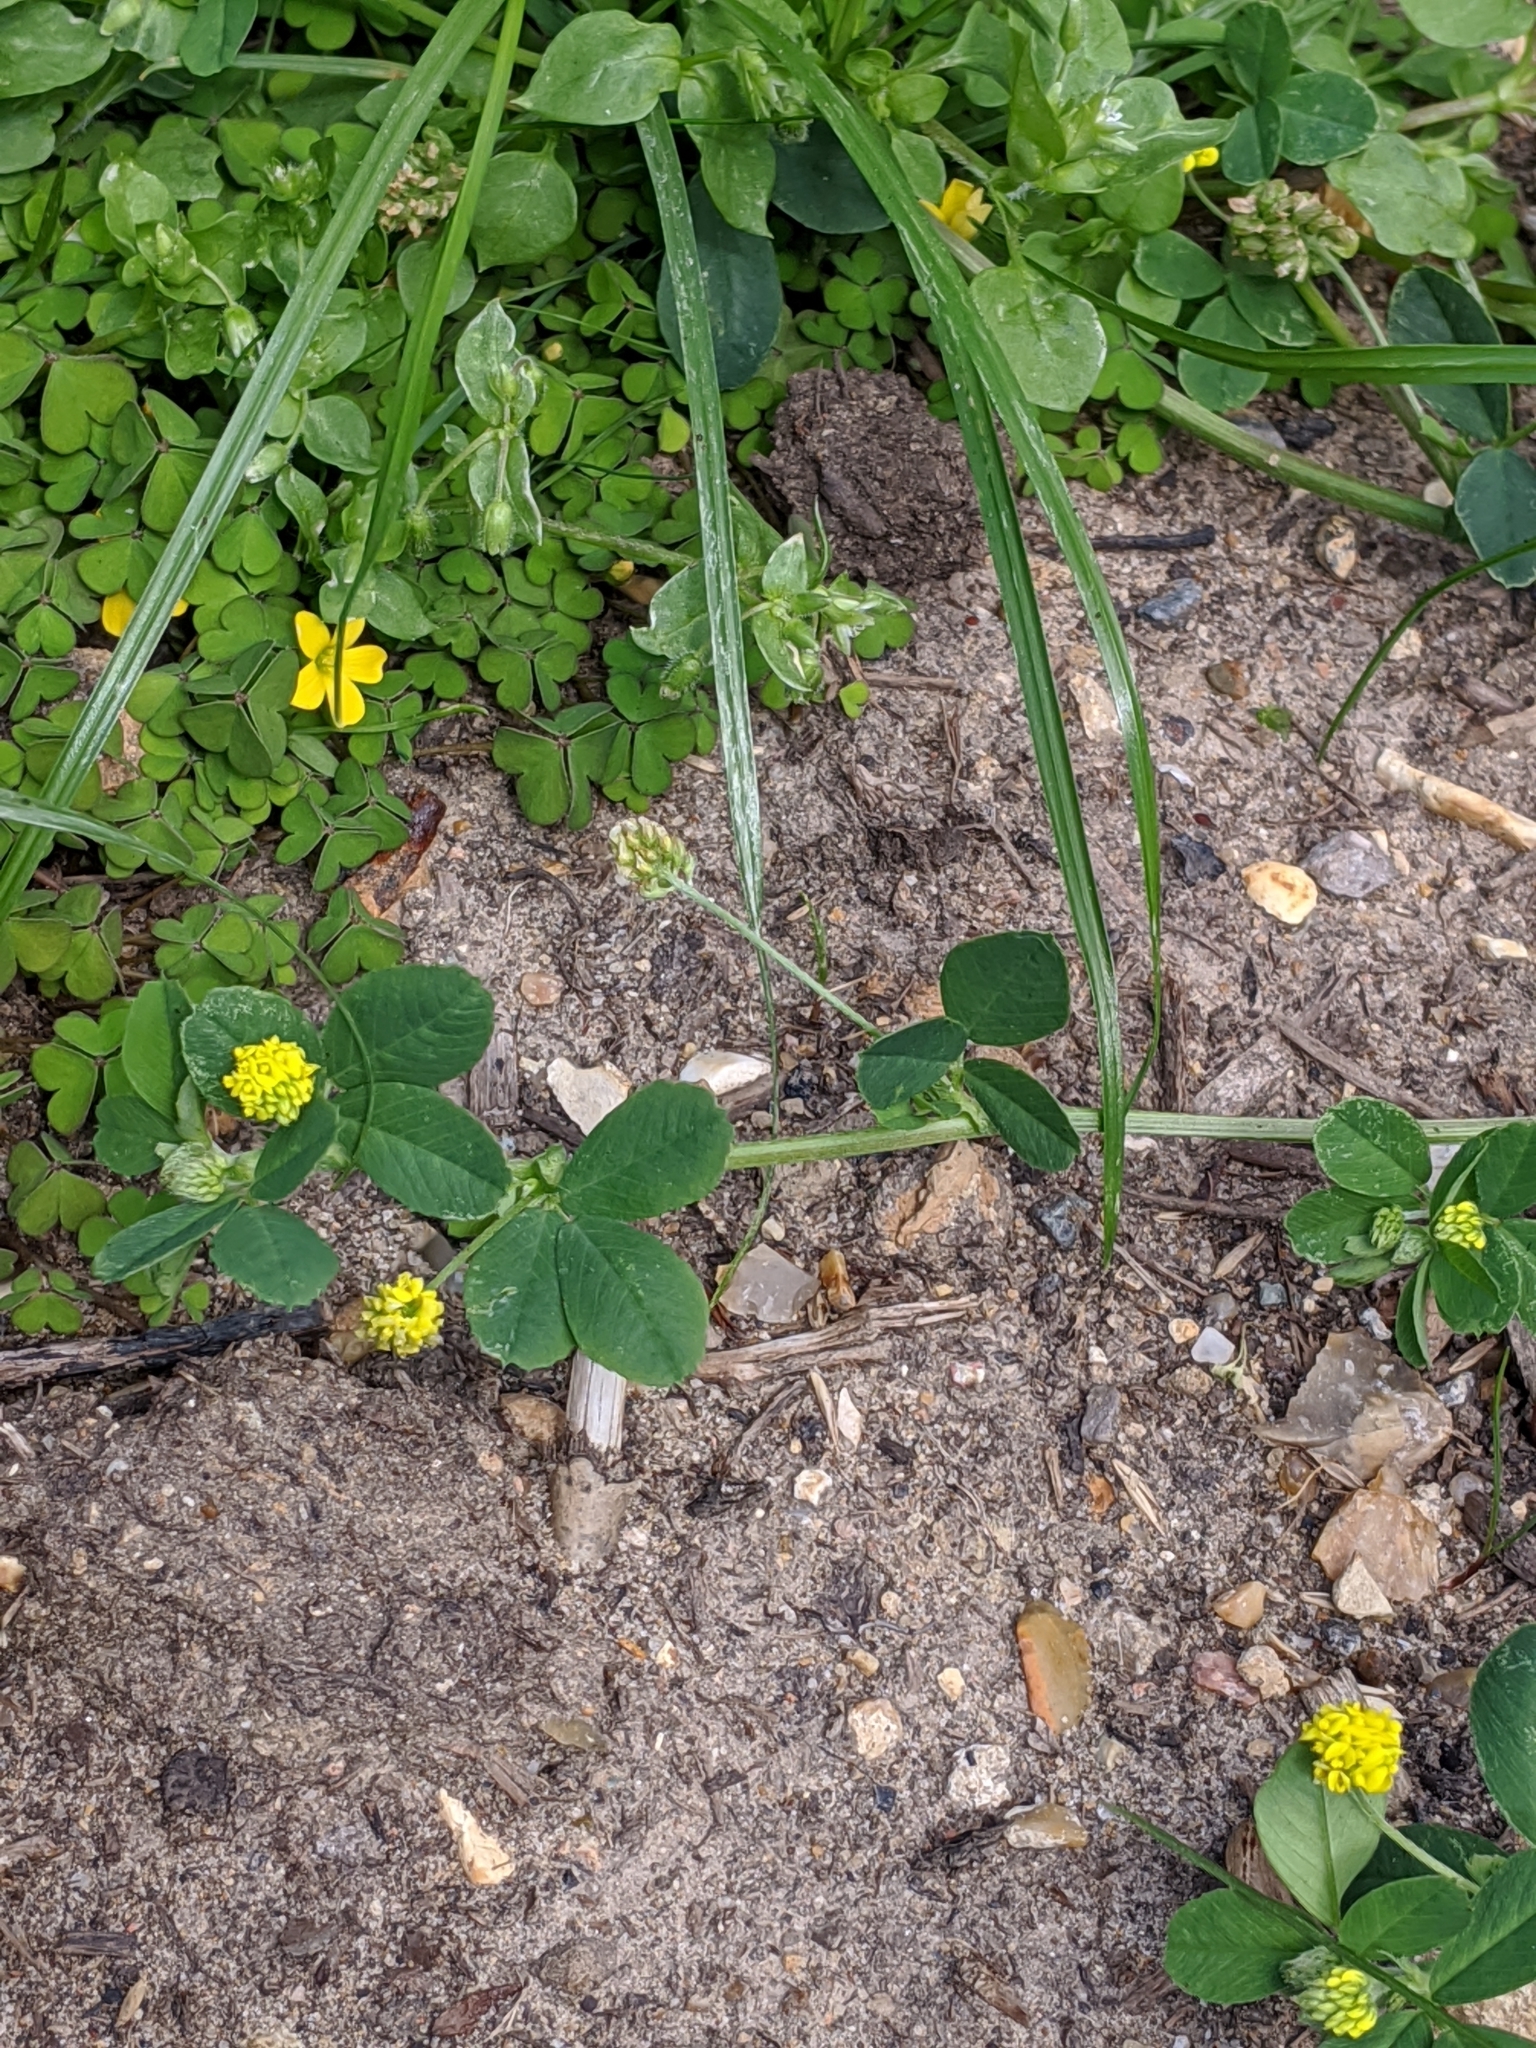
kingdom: Plantae
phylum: Tracheophyta
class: Magnoliopsida
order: Fabales
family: Fabaceae
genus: Medicago
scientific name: Medicago lupulina
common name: Black medick
